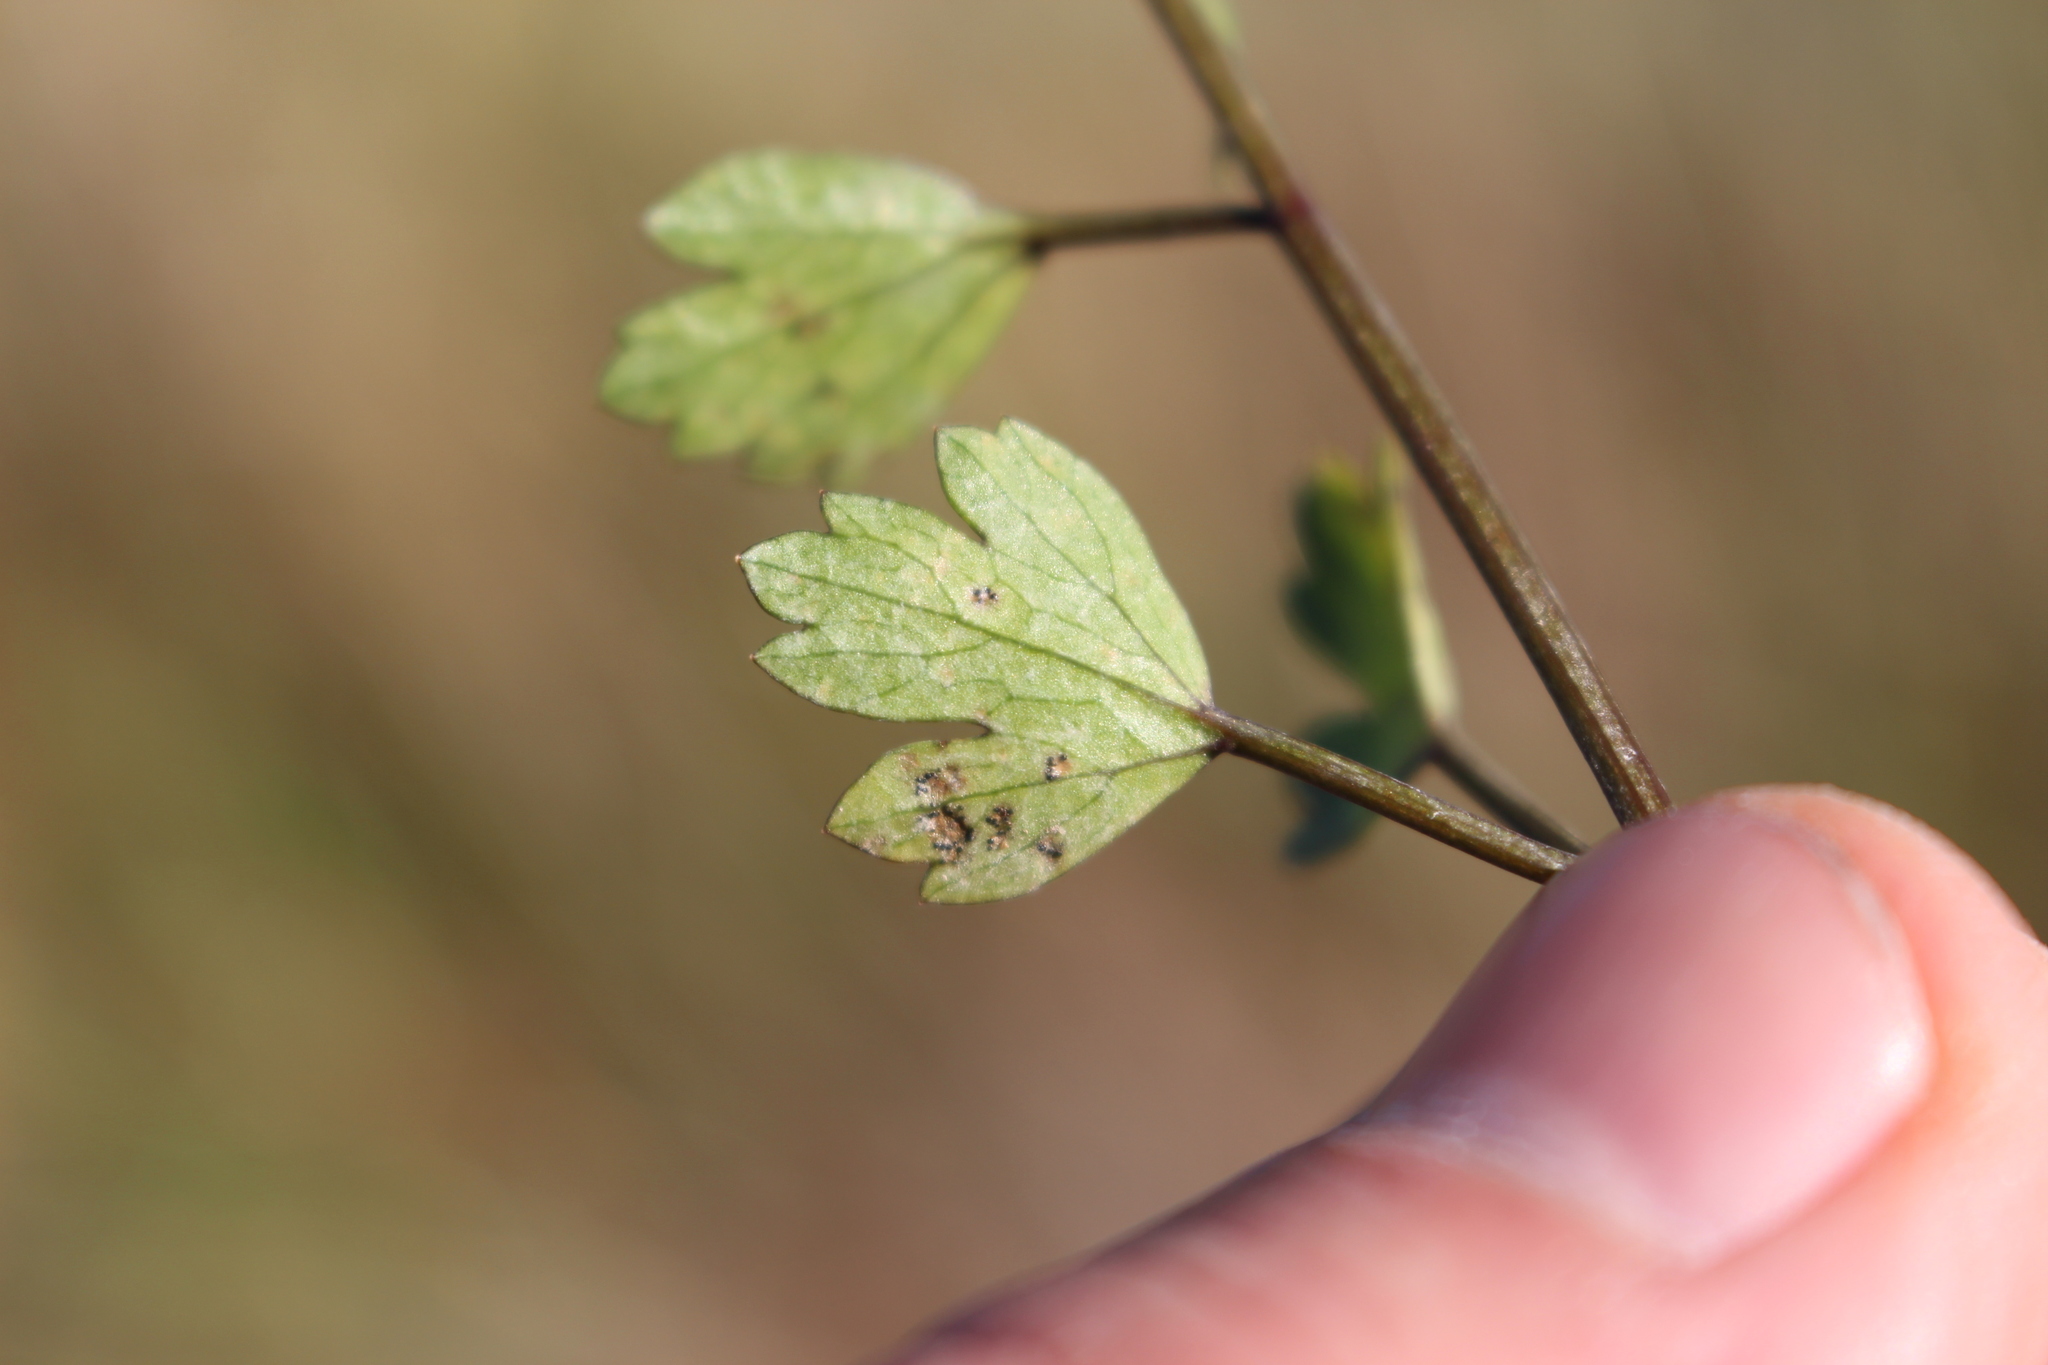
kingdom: Plantae
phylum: Tracheophyta
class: Magnoliopsida
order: Apiales
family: Apiaceae
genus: Apium
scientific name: Apium prostratum
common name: Prostrate marshwort
